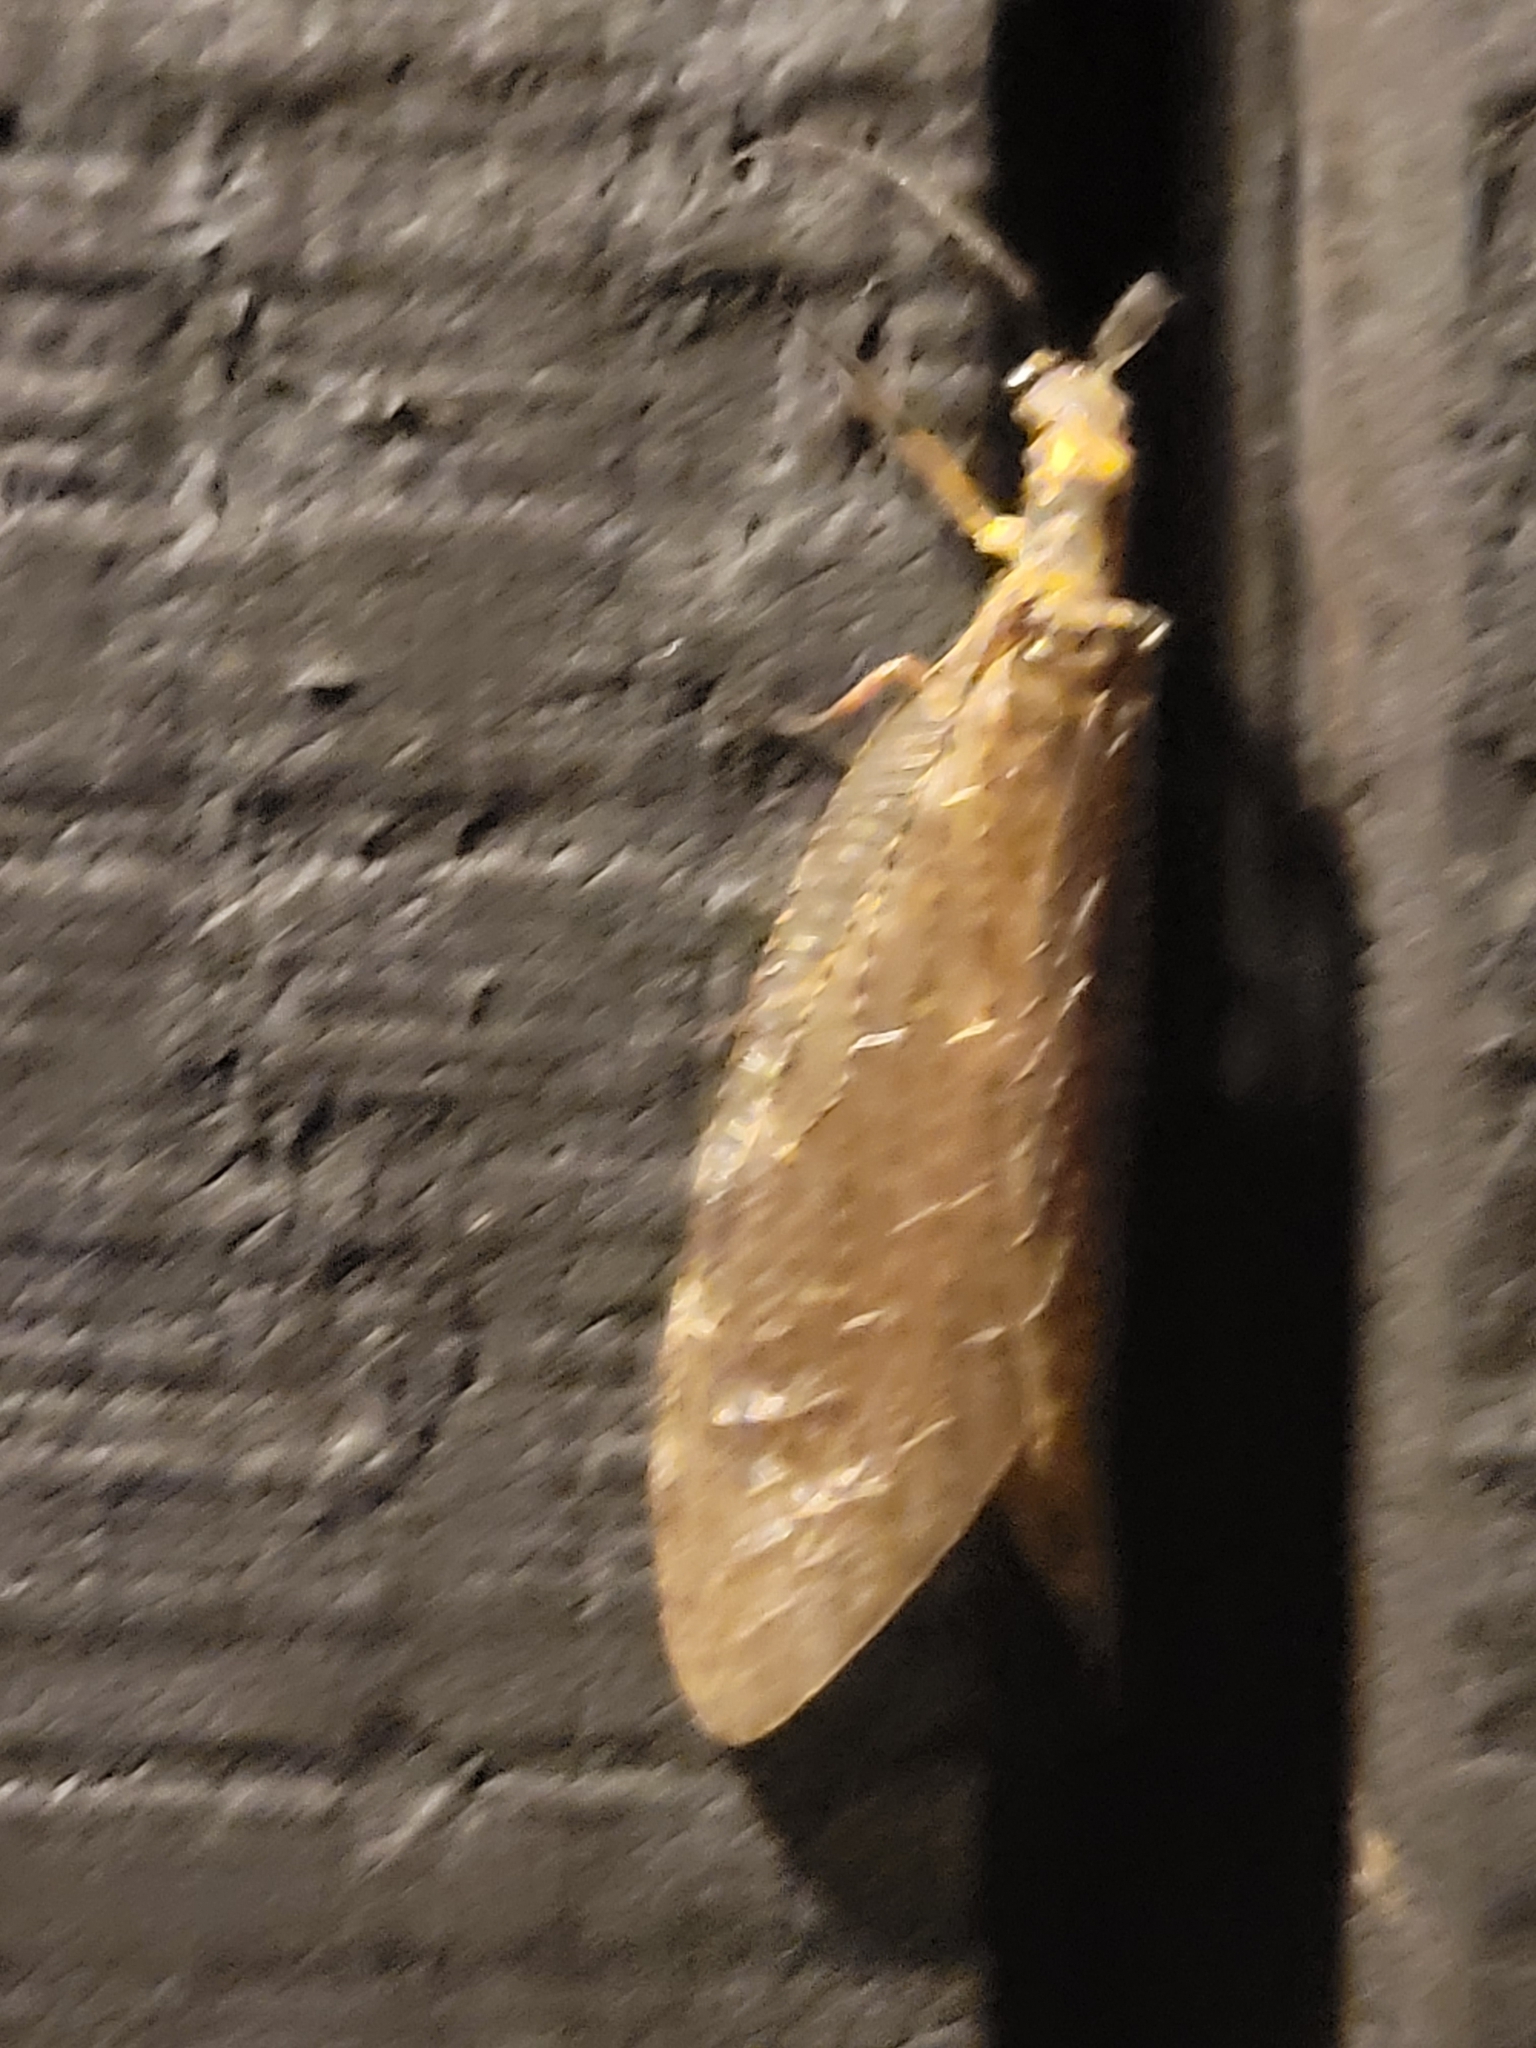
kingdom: Animalia
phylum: Arthropoda
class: Insecta
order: Megaloptera
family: Corydalidae
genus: Chauliodes
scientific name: Chauliodes pectinicornis
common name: Summer fishfly
